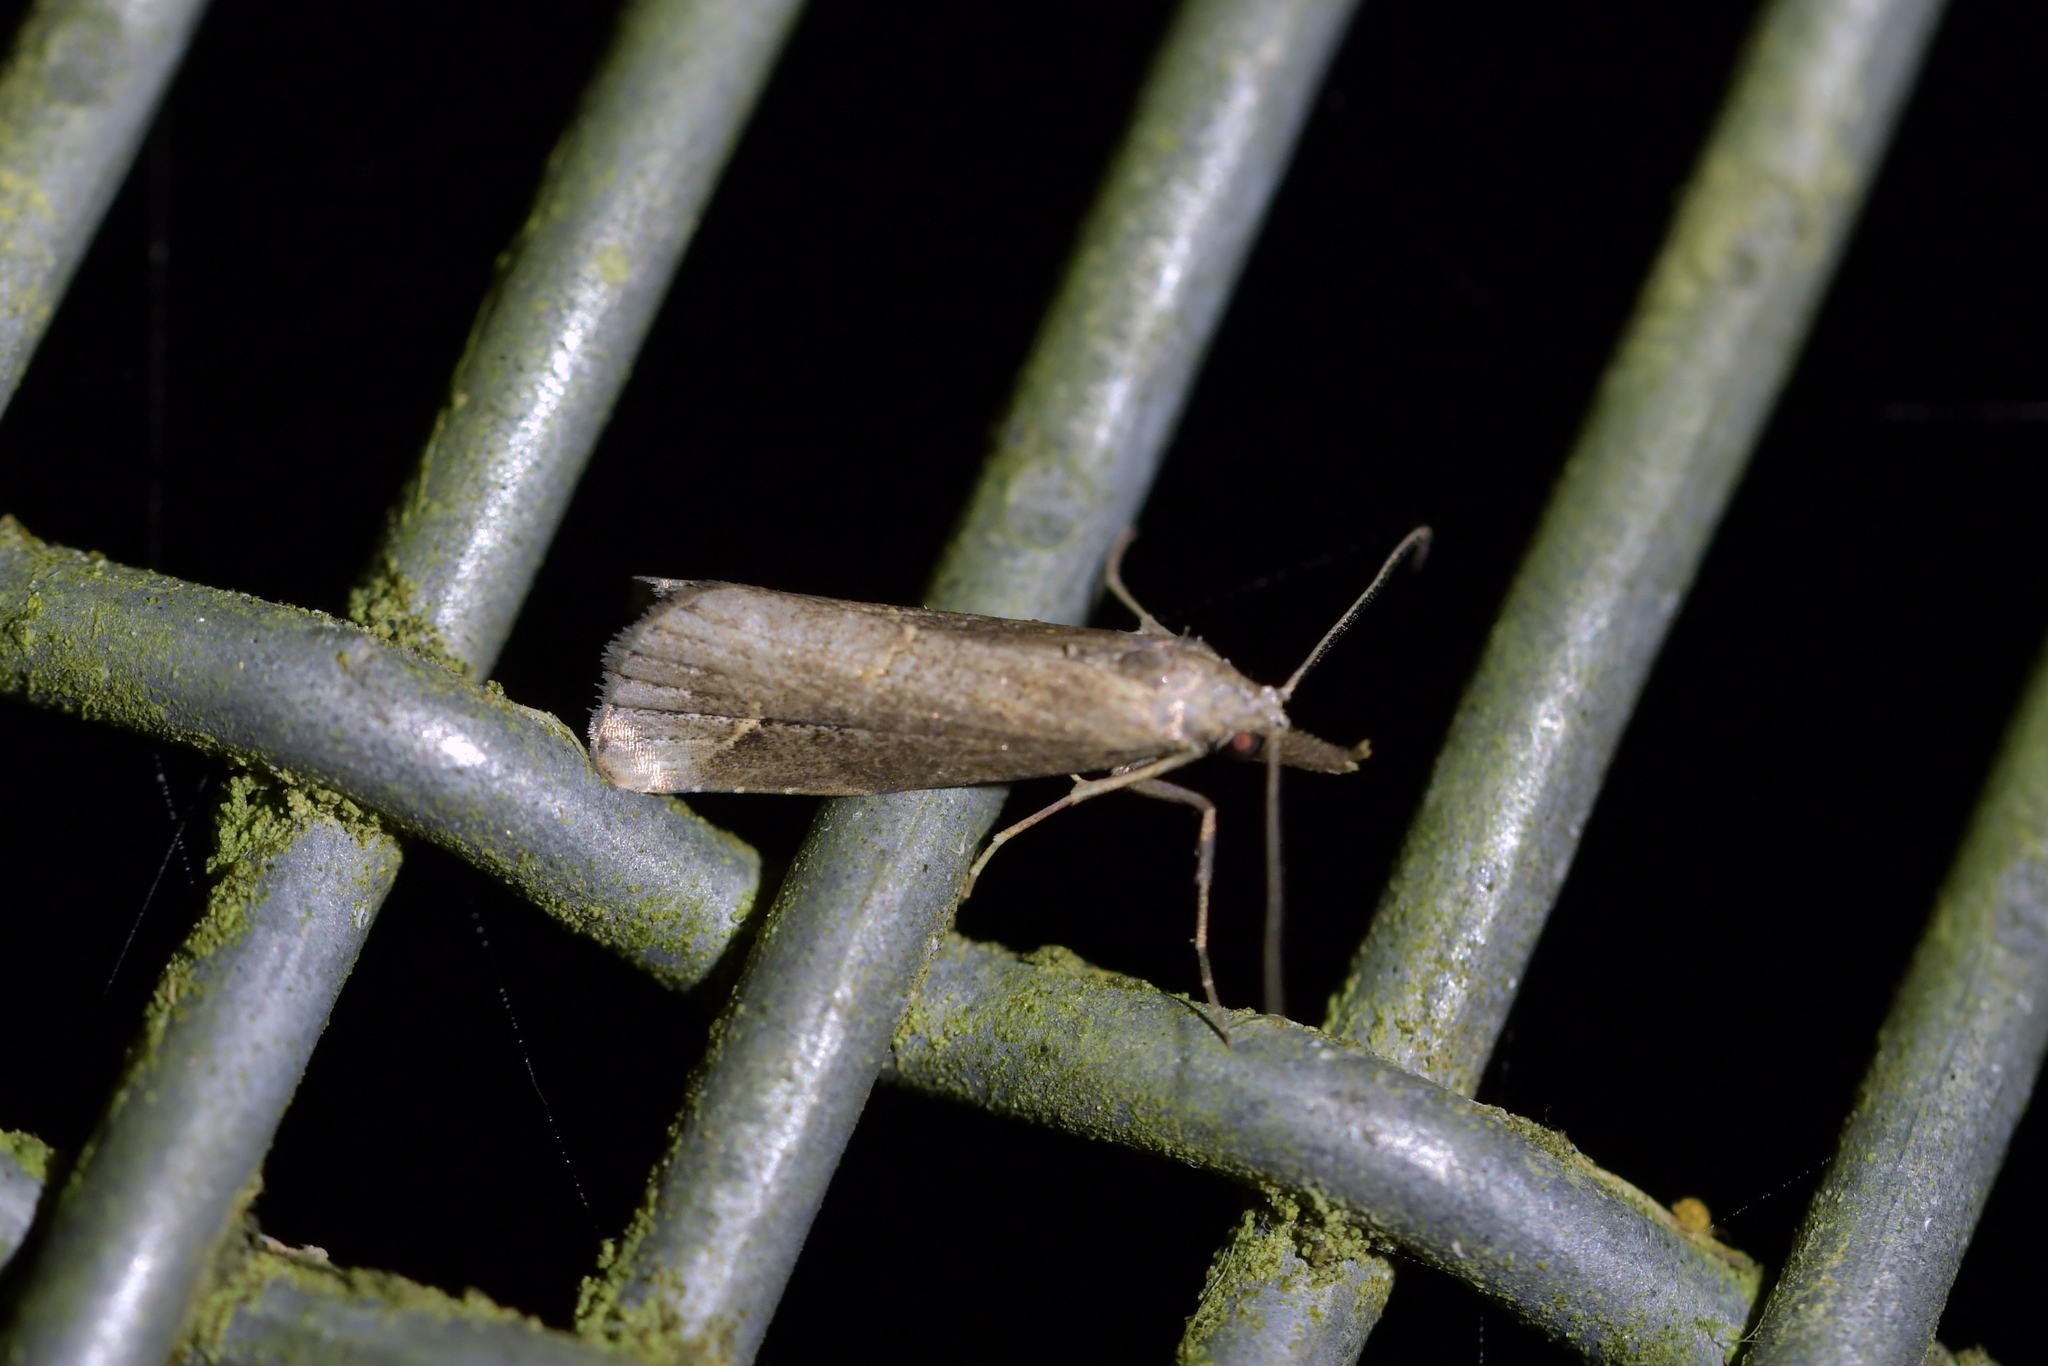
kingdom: Animalia
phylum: Arthropoda
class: Insecta
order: Lepidoptera
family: Erebidae
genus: Schrankia
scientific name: Schrankia costaestrigalis
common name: Pinion-streaked snout
